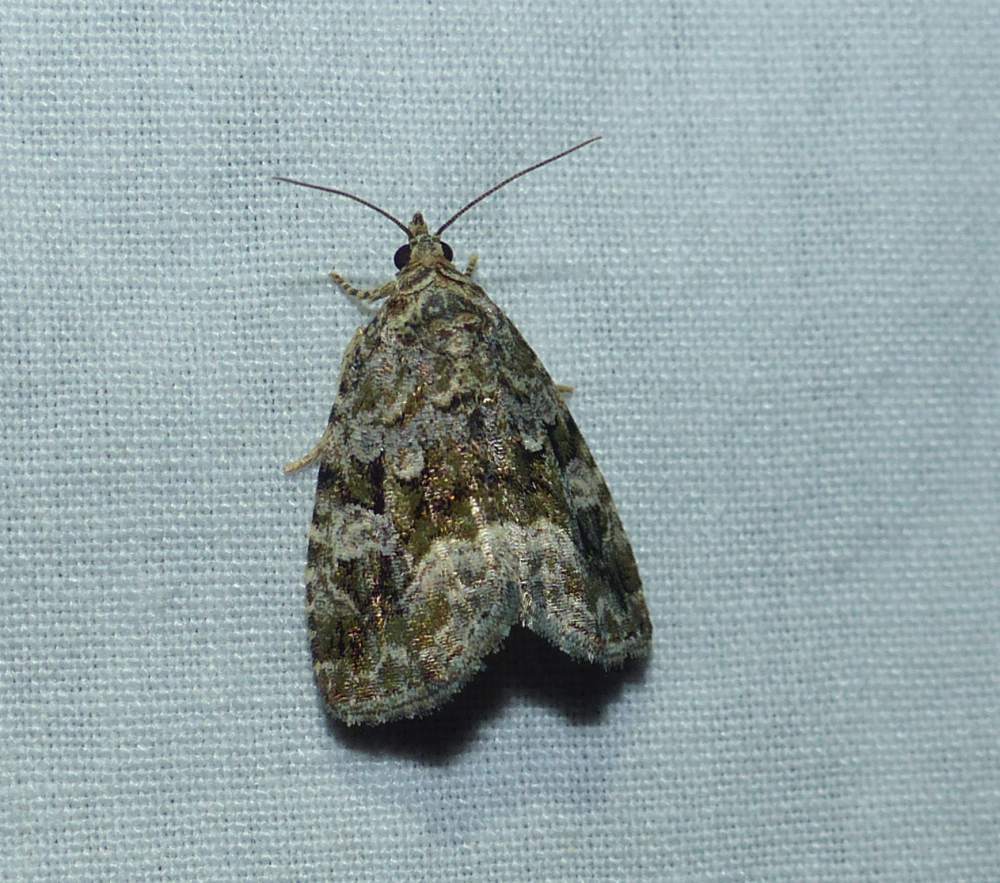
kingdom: Animalia
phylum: Arthropoda
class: Insecta
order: Lepidoptera
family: Noctuidae
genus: Protodeltote
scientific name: Protodeltote muscosula
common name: Large mossy glyph
